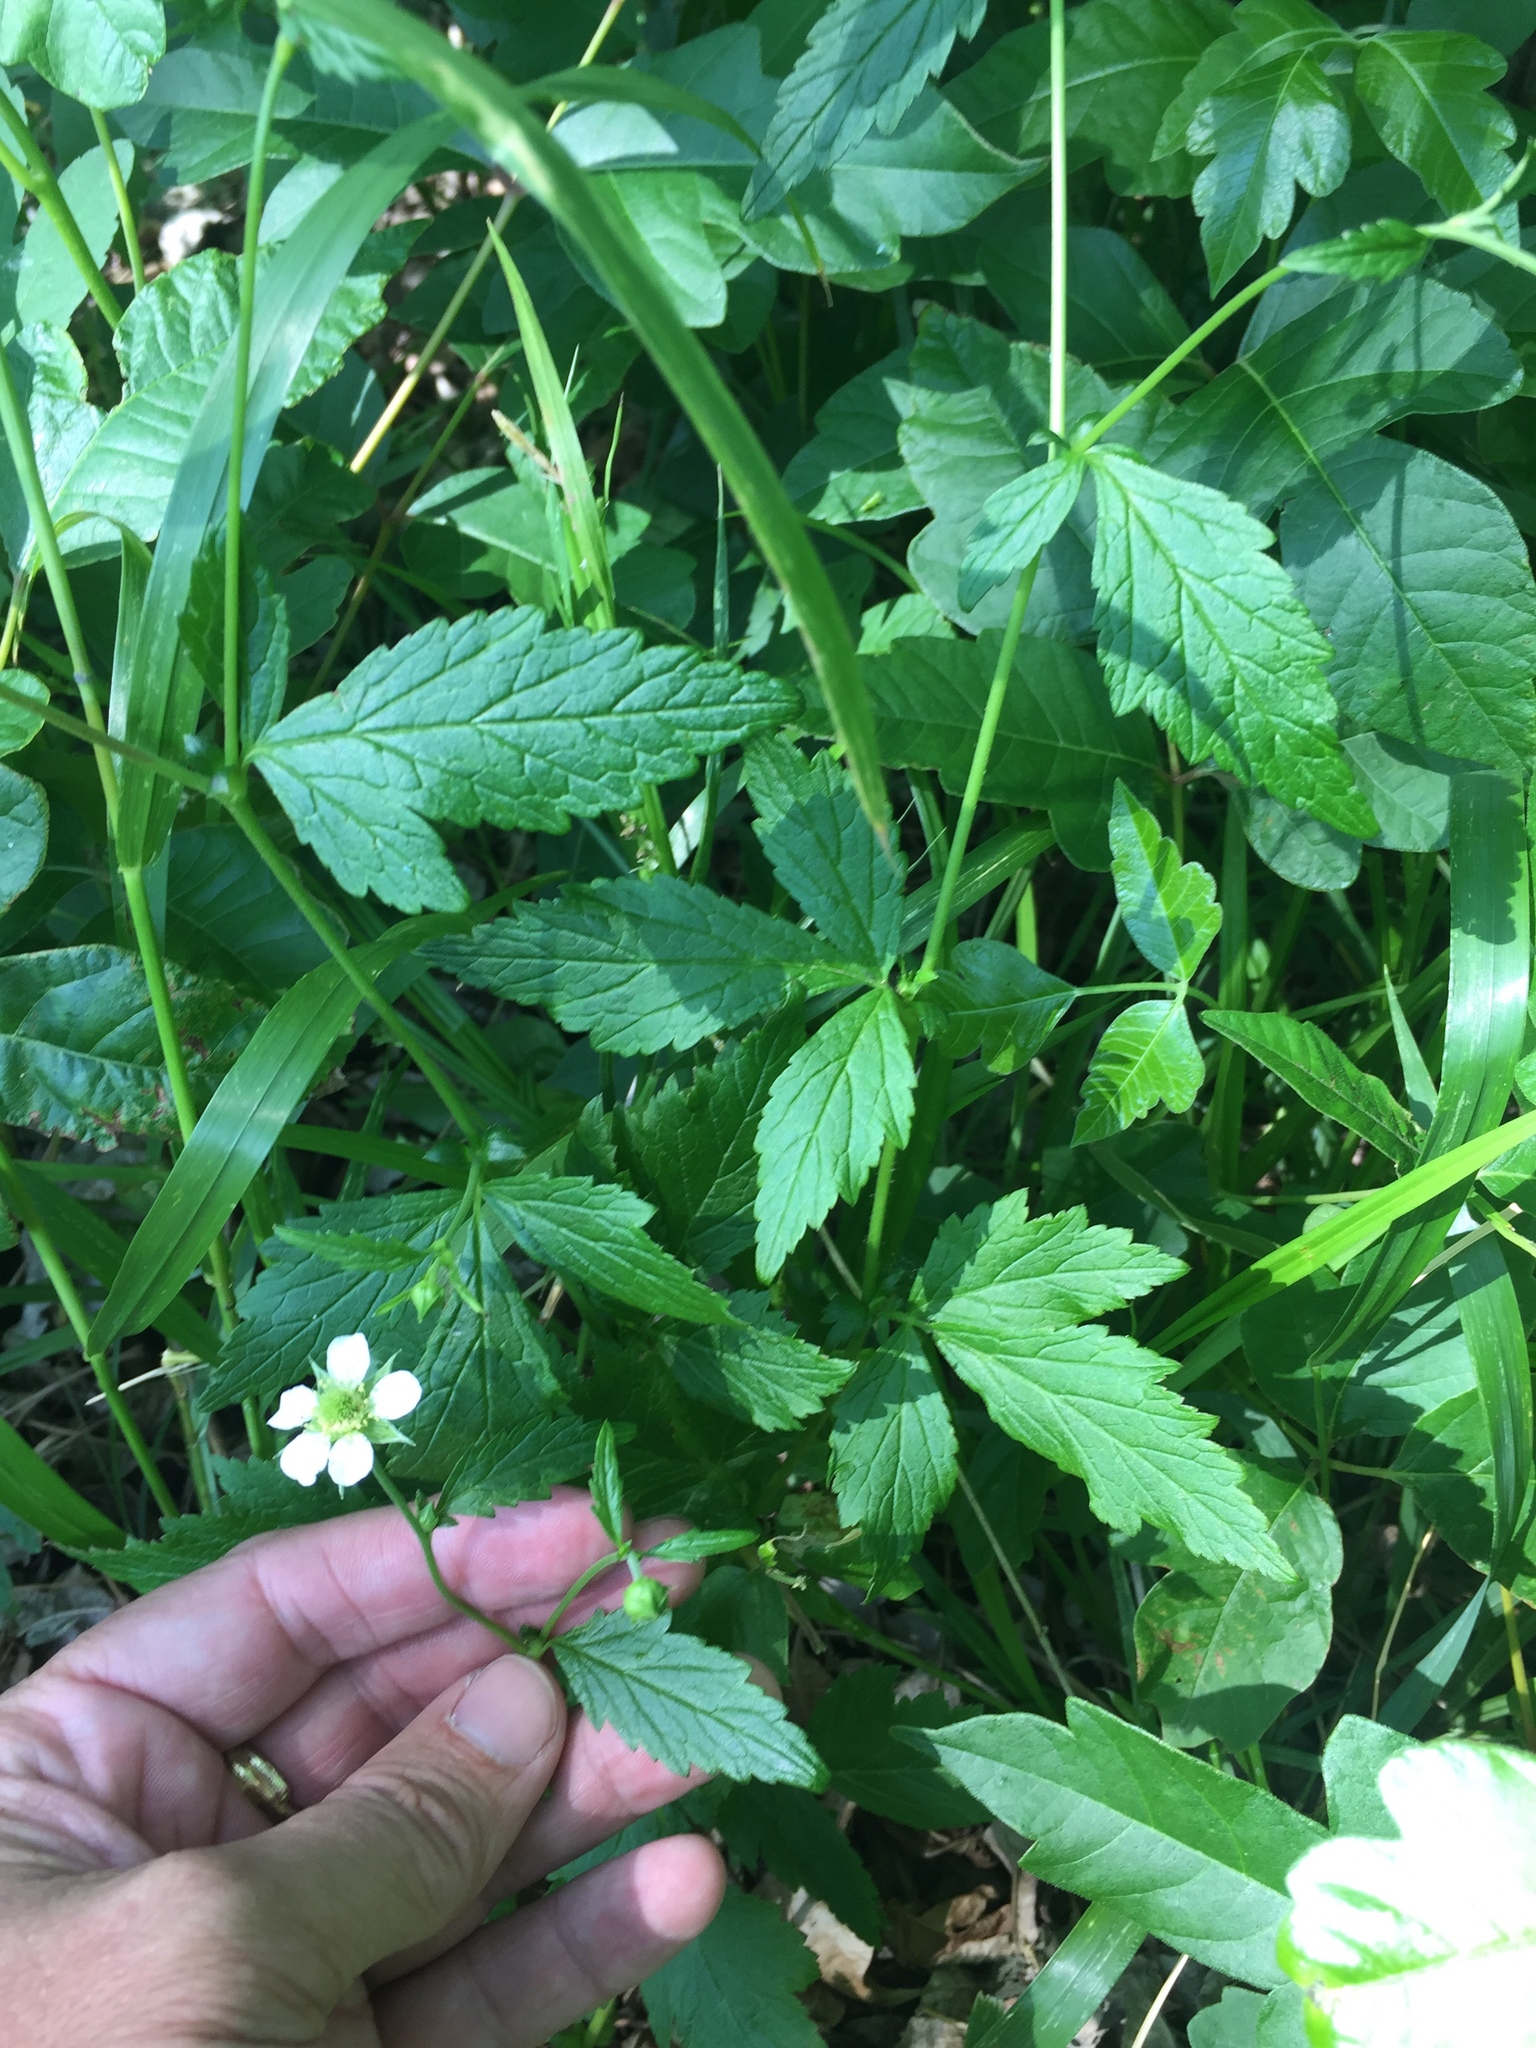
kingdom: Plantae
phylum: Tracheophyta
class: Magnoliopsida
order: Rosales
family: Rosaceae
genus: Geum
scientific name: Geum canadense
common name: White avens
